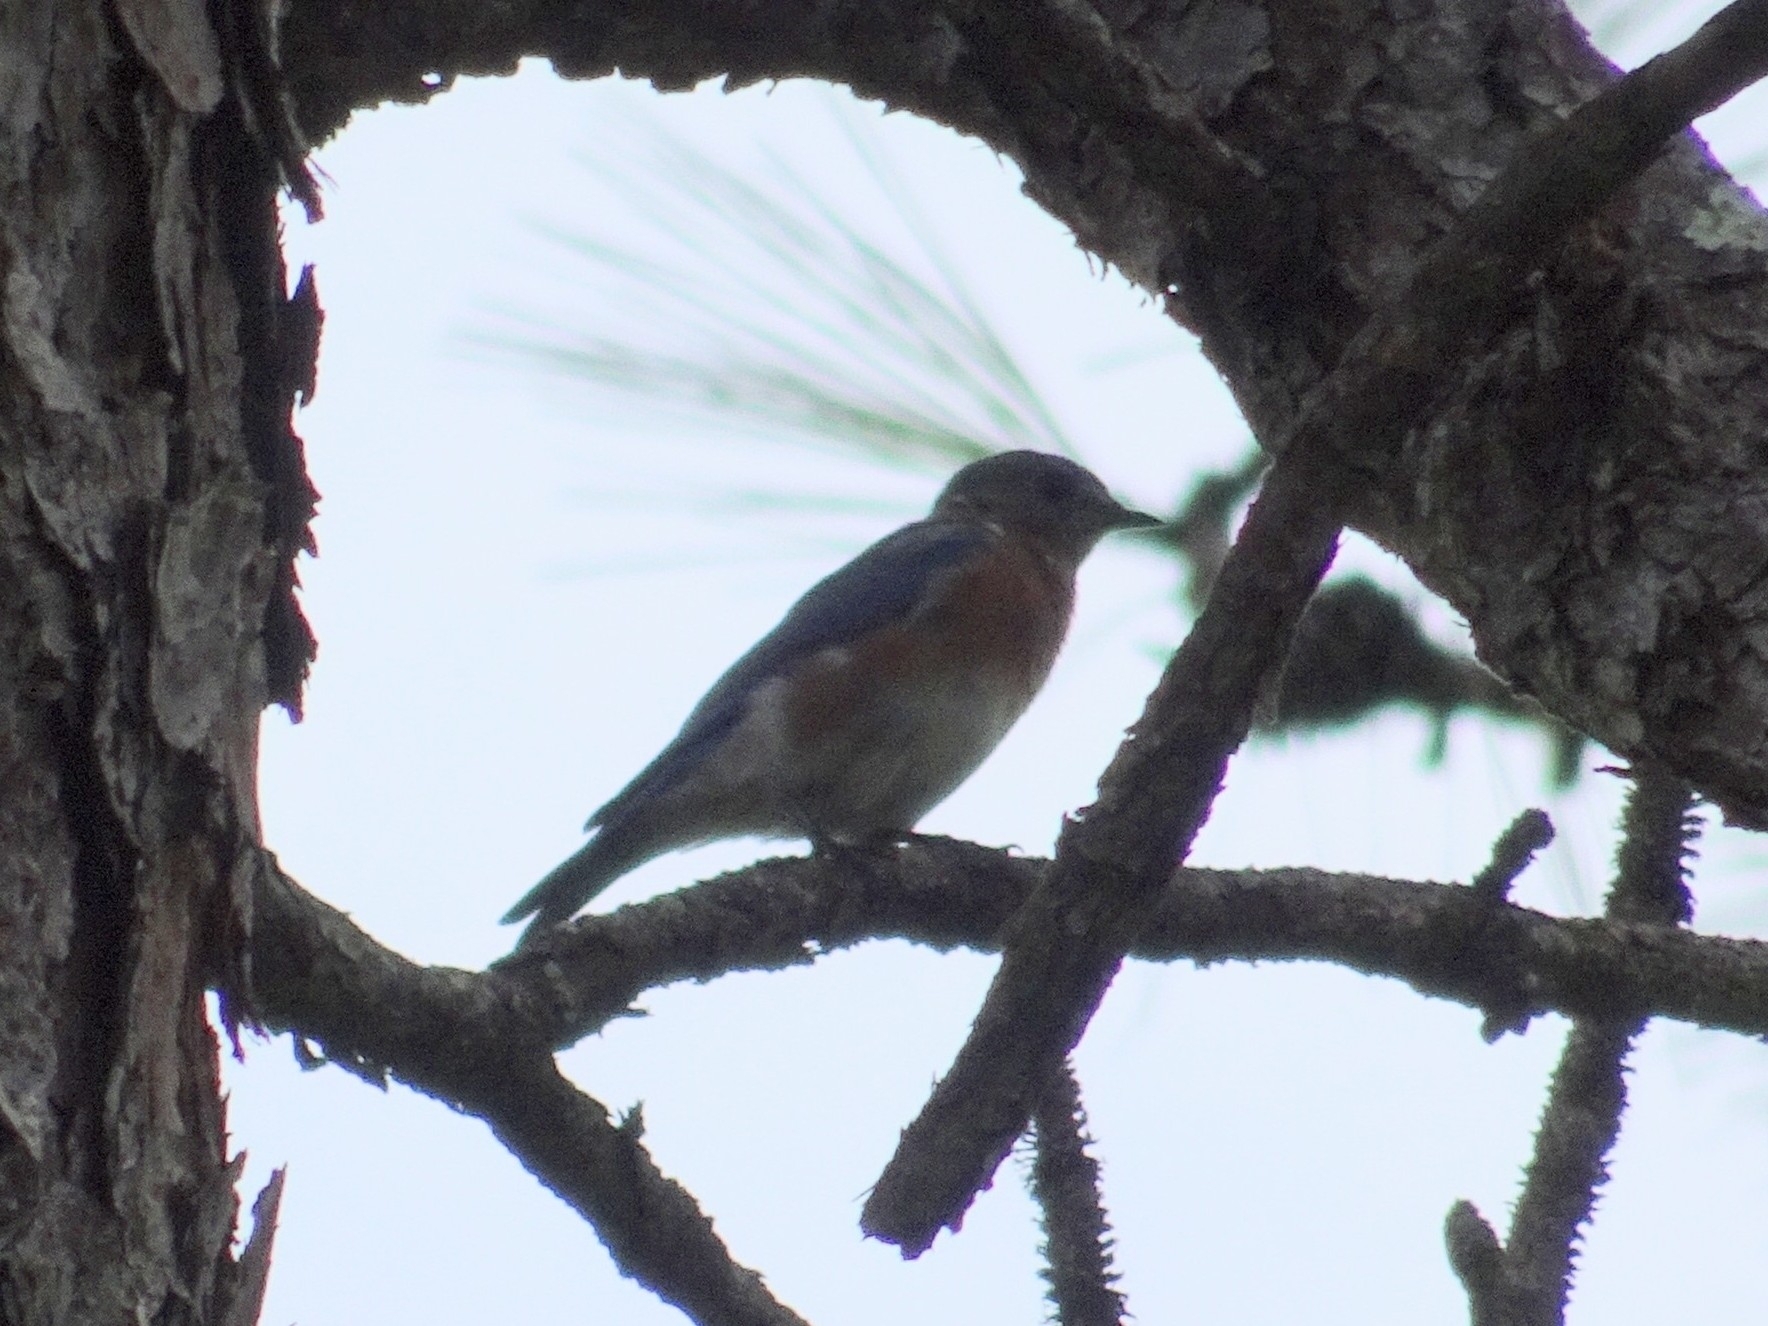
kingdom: Animalia
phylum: Chordata
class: Aves
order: Passeriformes
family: Turdidae
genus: Sialia
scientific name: Sialia sialis
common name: Eastern bluebird
